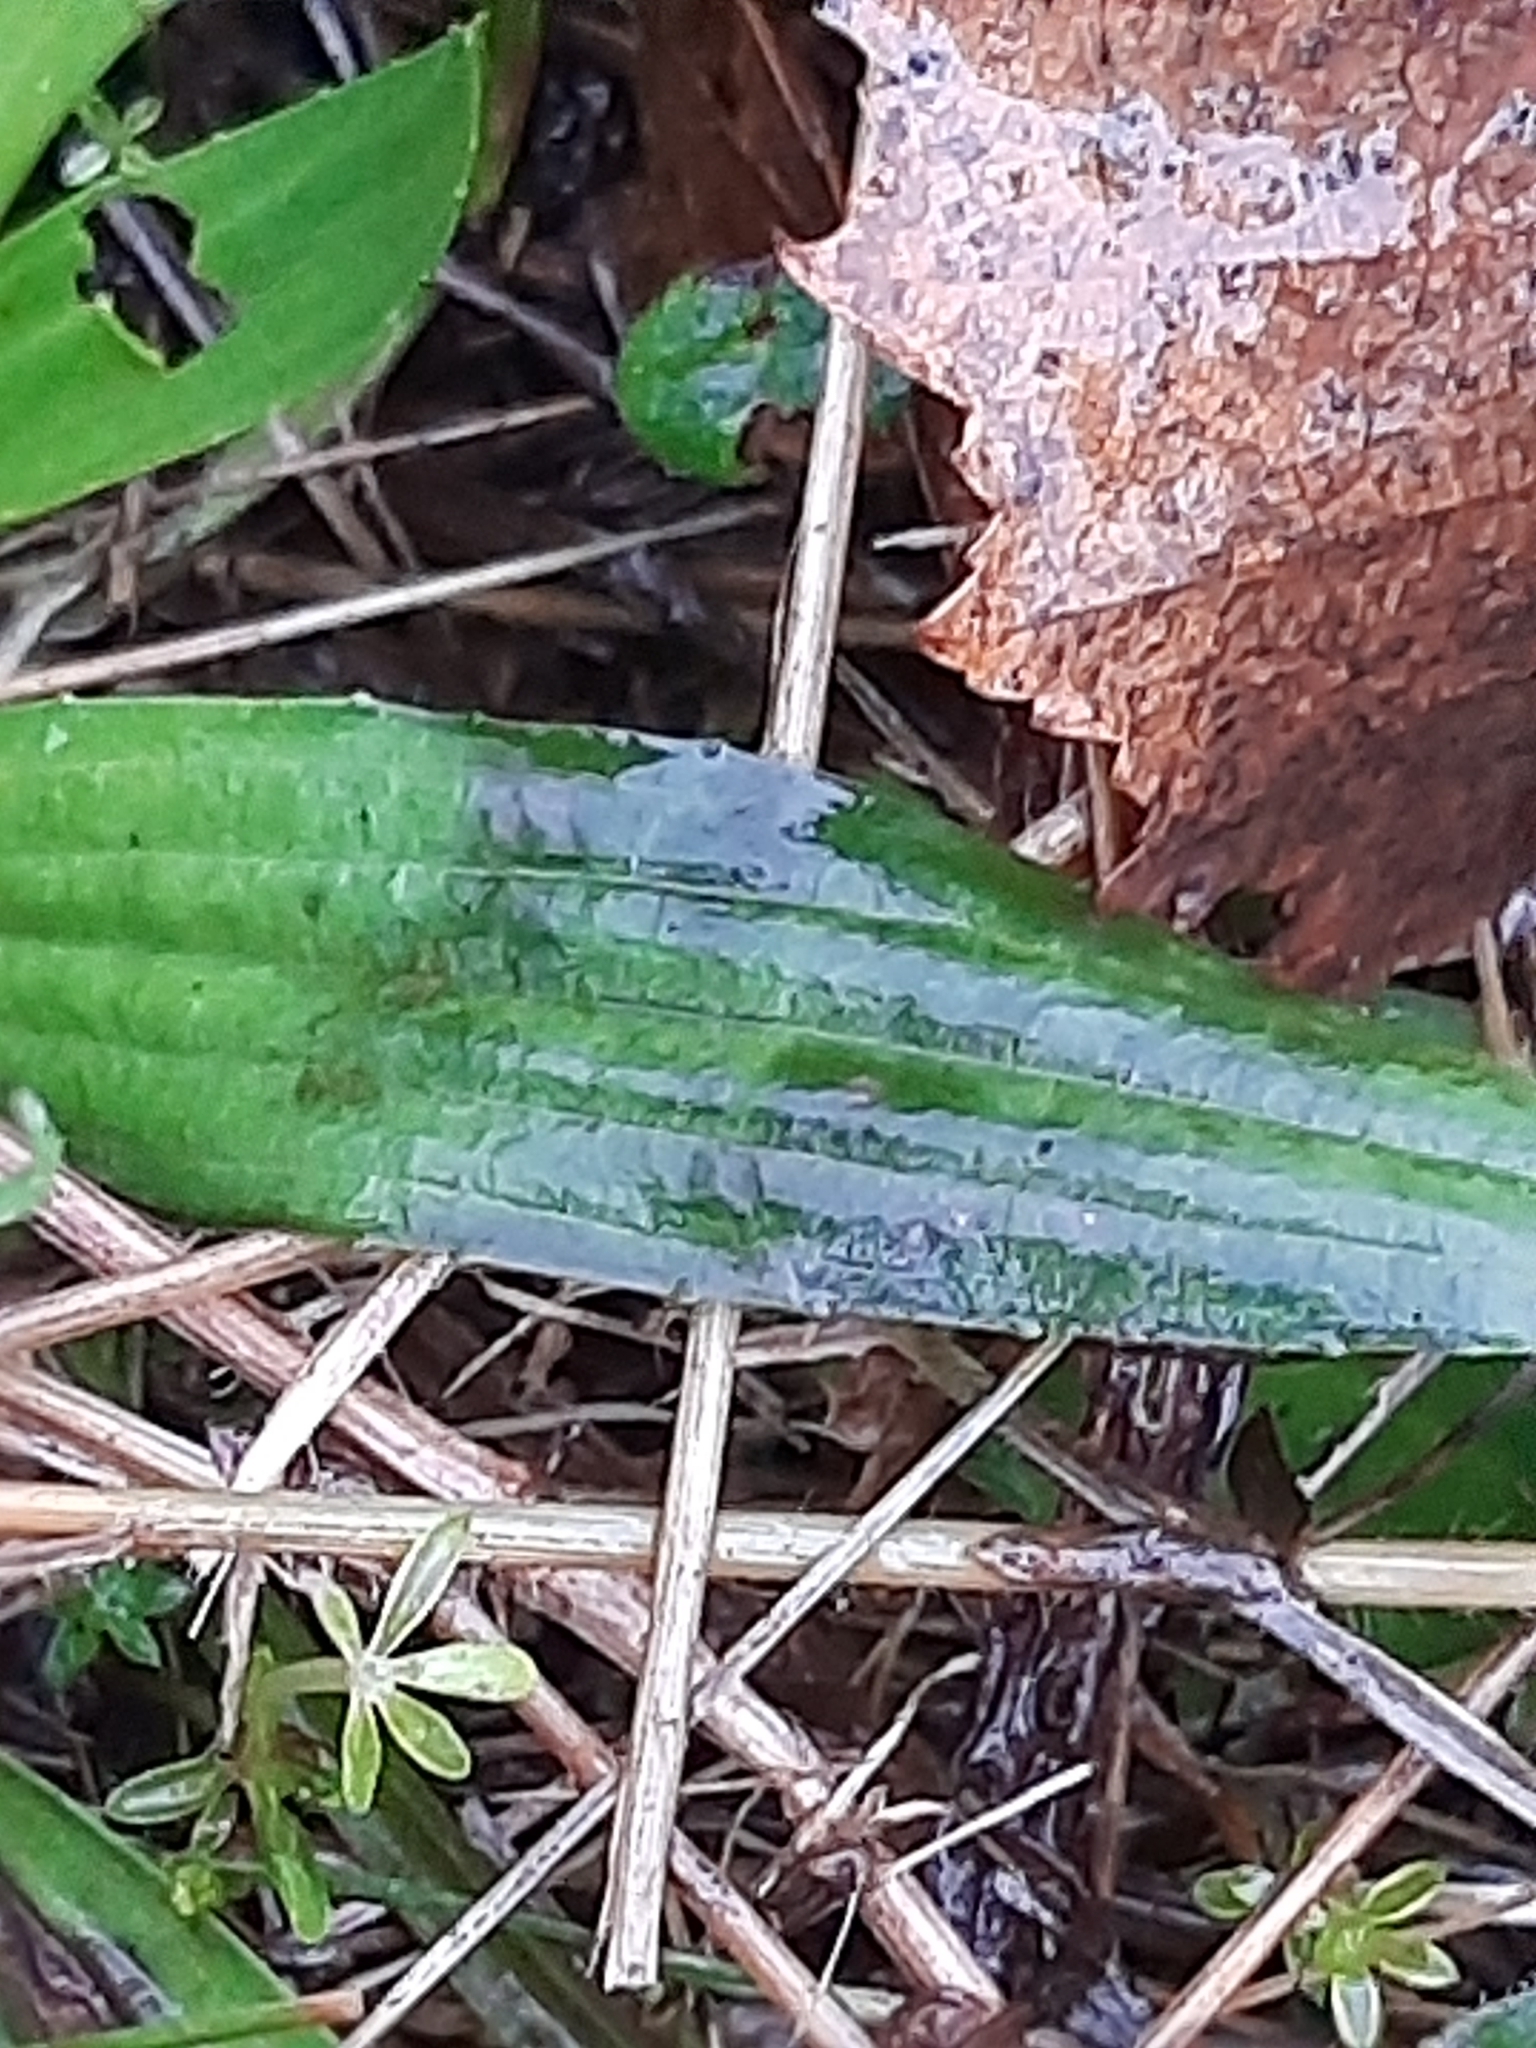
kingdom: Plantae
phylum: Tracheophyta
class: Magnoliopsida
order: Lamiales
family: Plantaginaceae
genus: Plantago
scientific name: Plantago lanceolata
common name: Ribwort plantain
